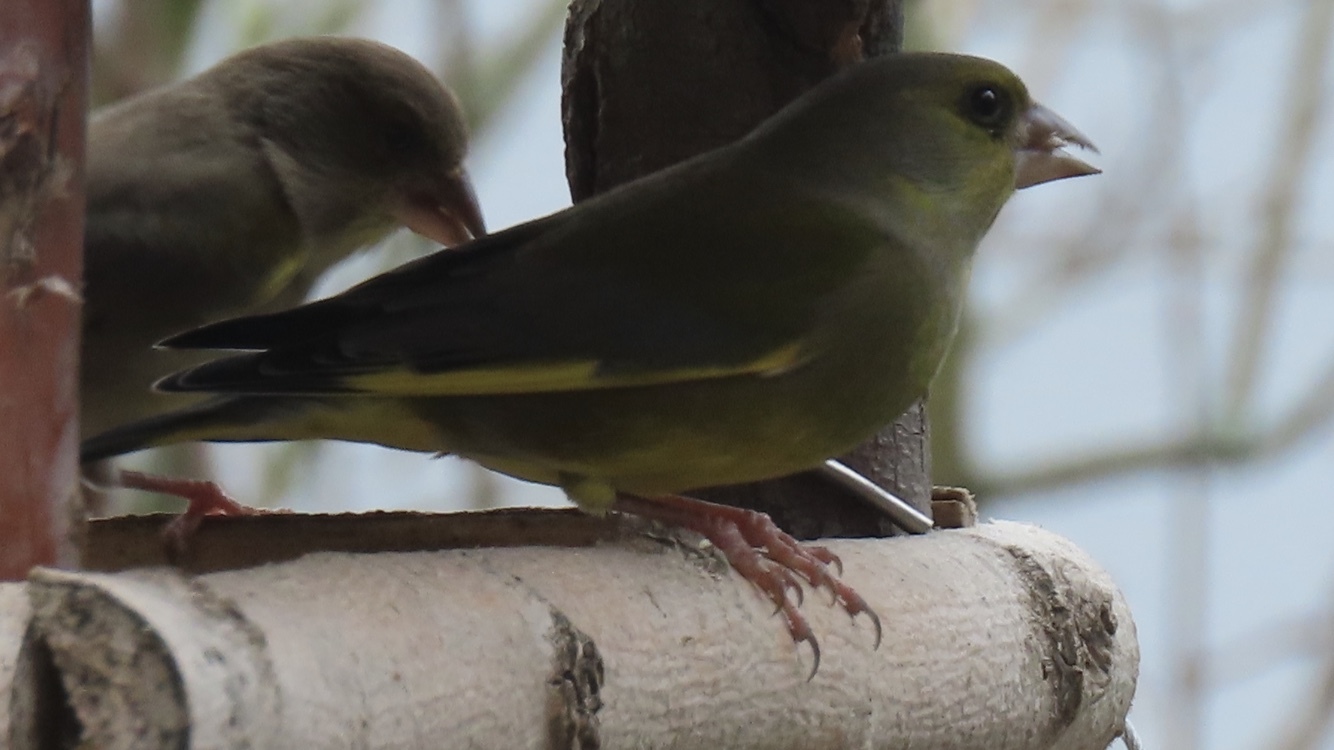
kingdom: Plantae
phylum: Tracheophyta
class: Liliopsida
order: Poales
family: Poaceae
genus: Chloris
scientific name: Chloris chloris
